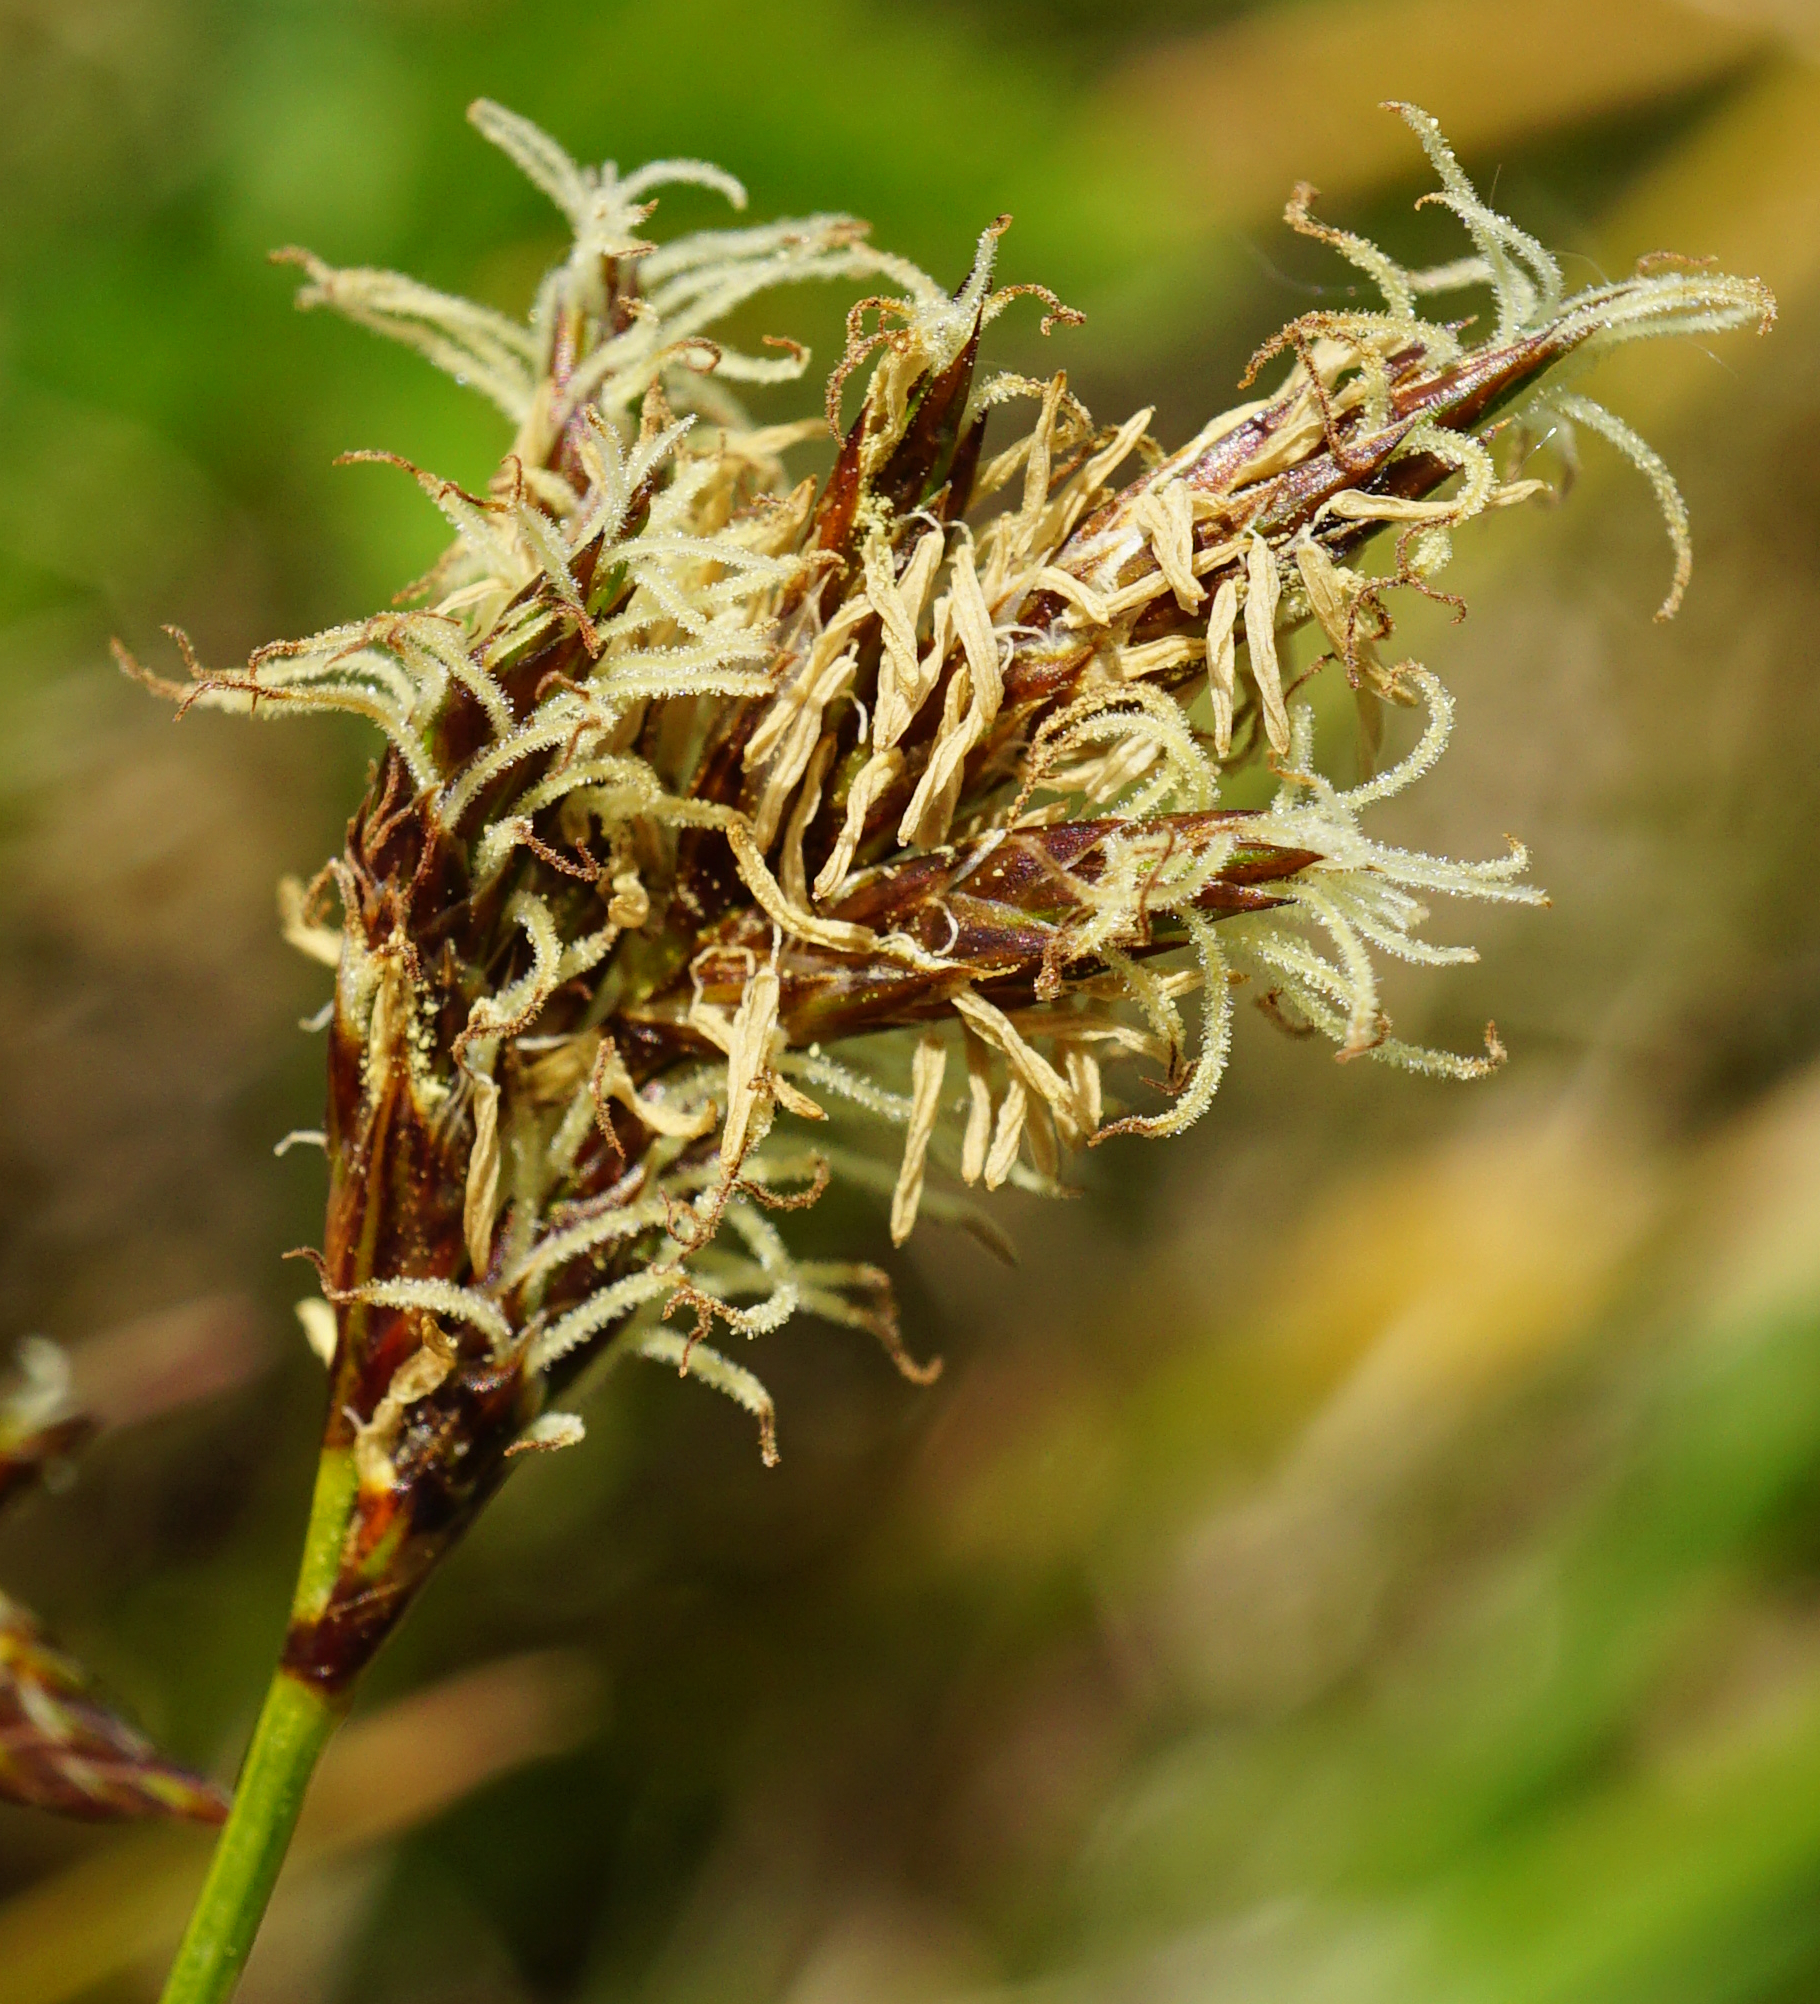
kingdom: Plantae
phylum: Tracheophyta
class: Liliopsida
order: Poales
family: Cyperaceae
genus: Carex
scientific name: Carex praecox
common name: Early sedge
